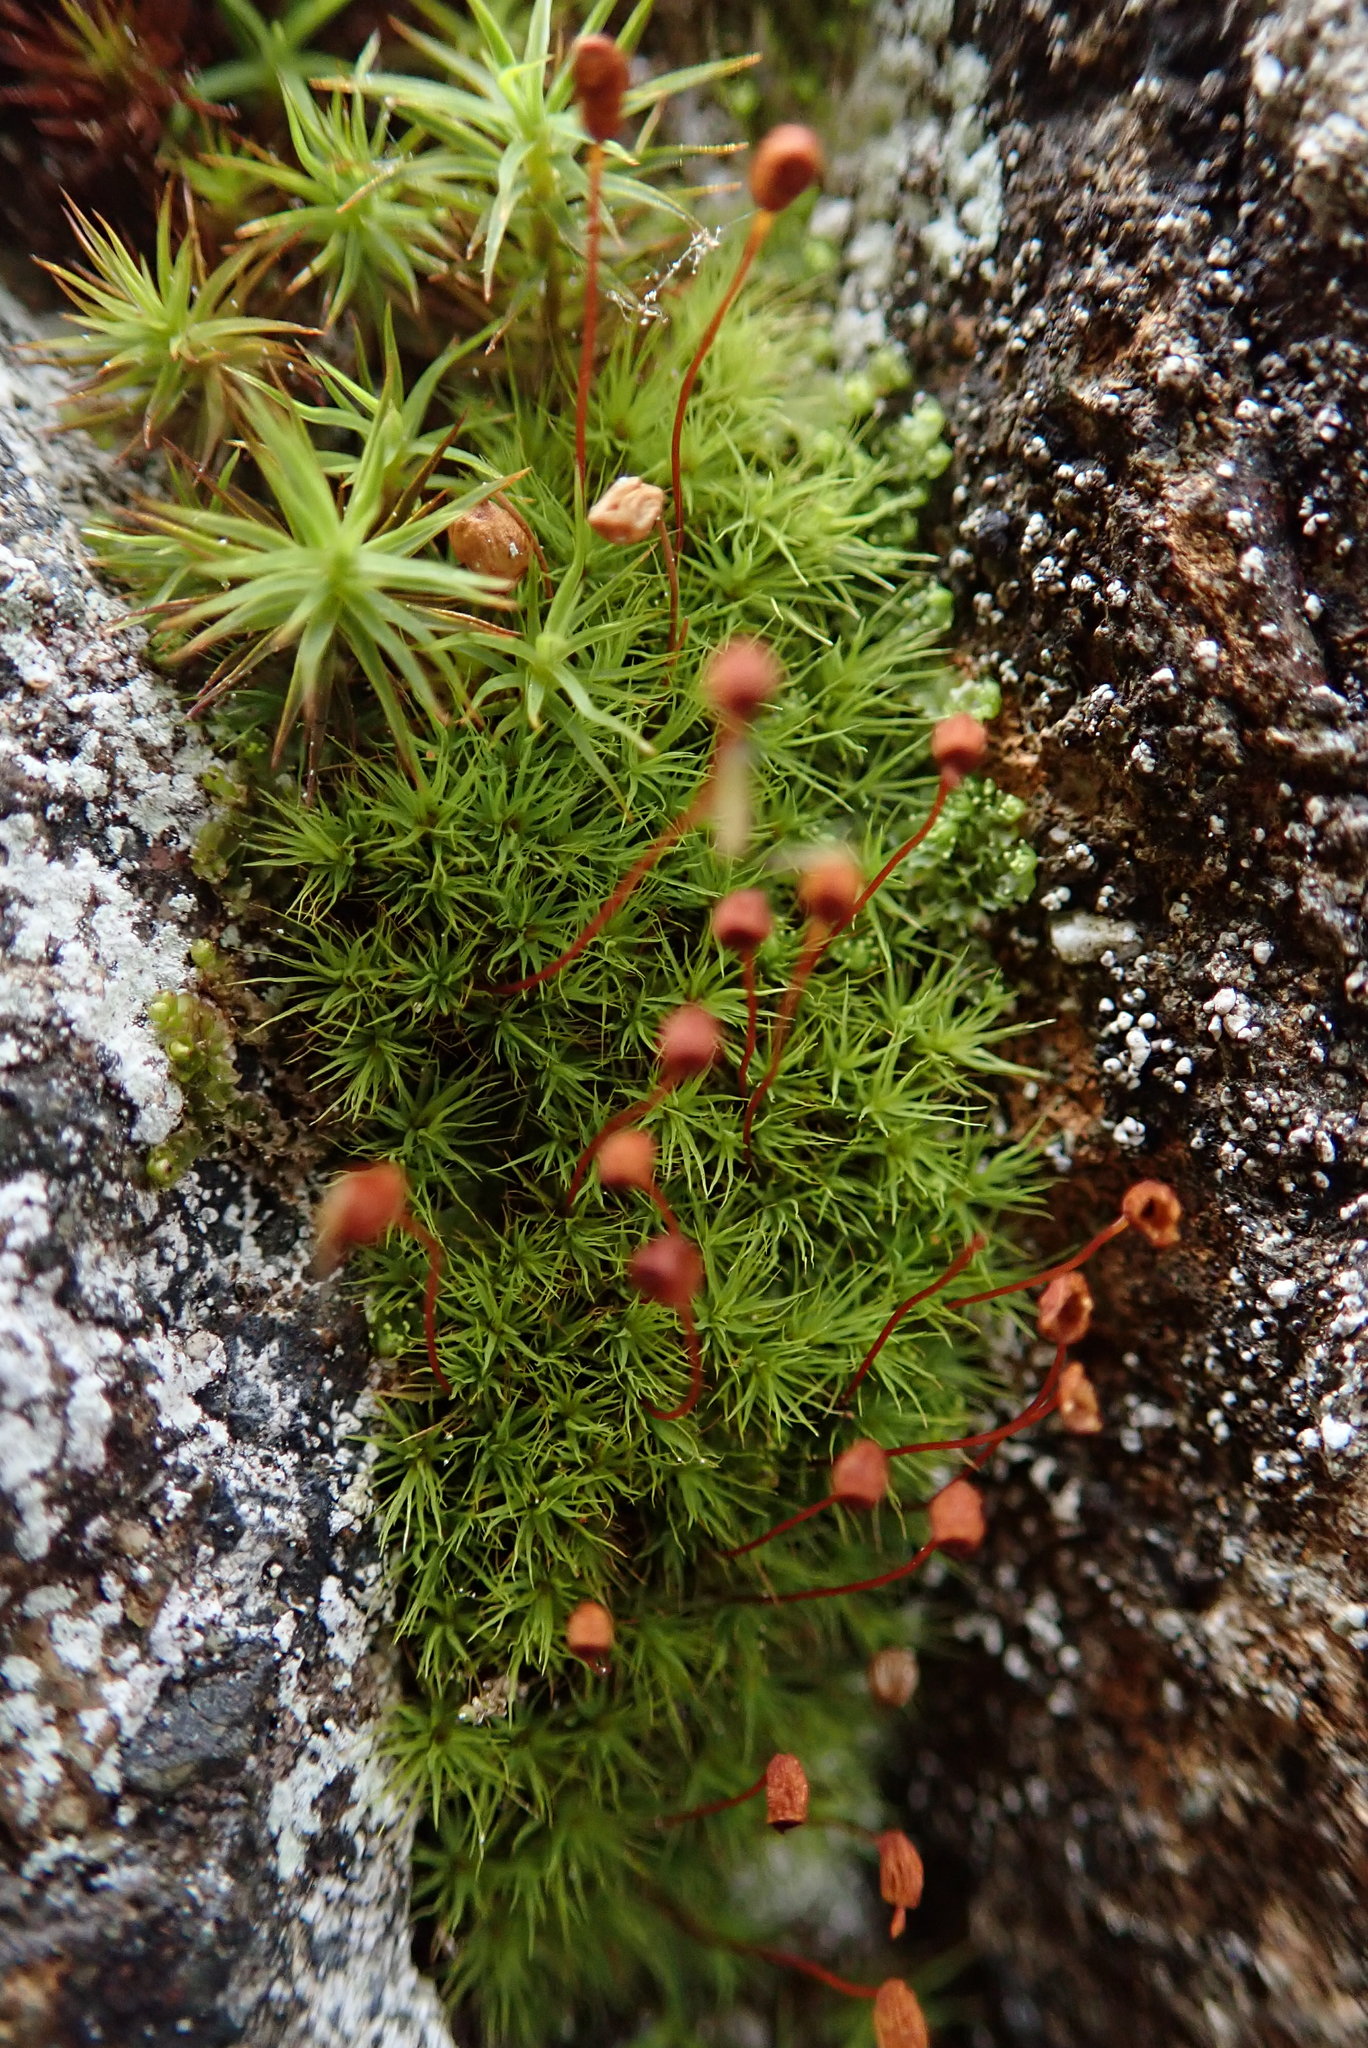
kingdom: Plantae
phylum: Bryophyta
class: Bryopsida
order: Bartramiales
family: Bartramiaceae
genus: Bartramia
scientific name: Bartramia ithyphylla
